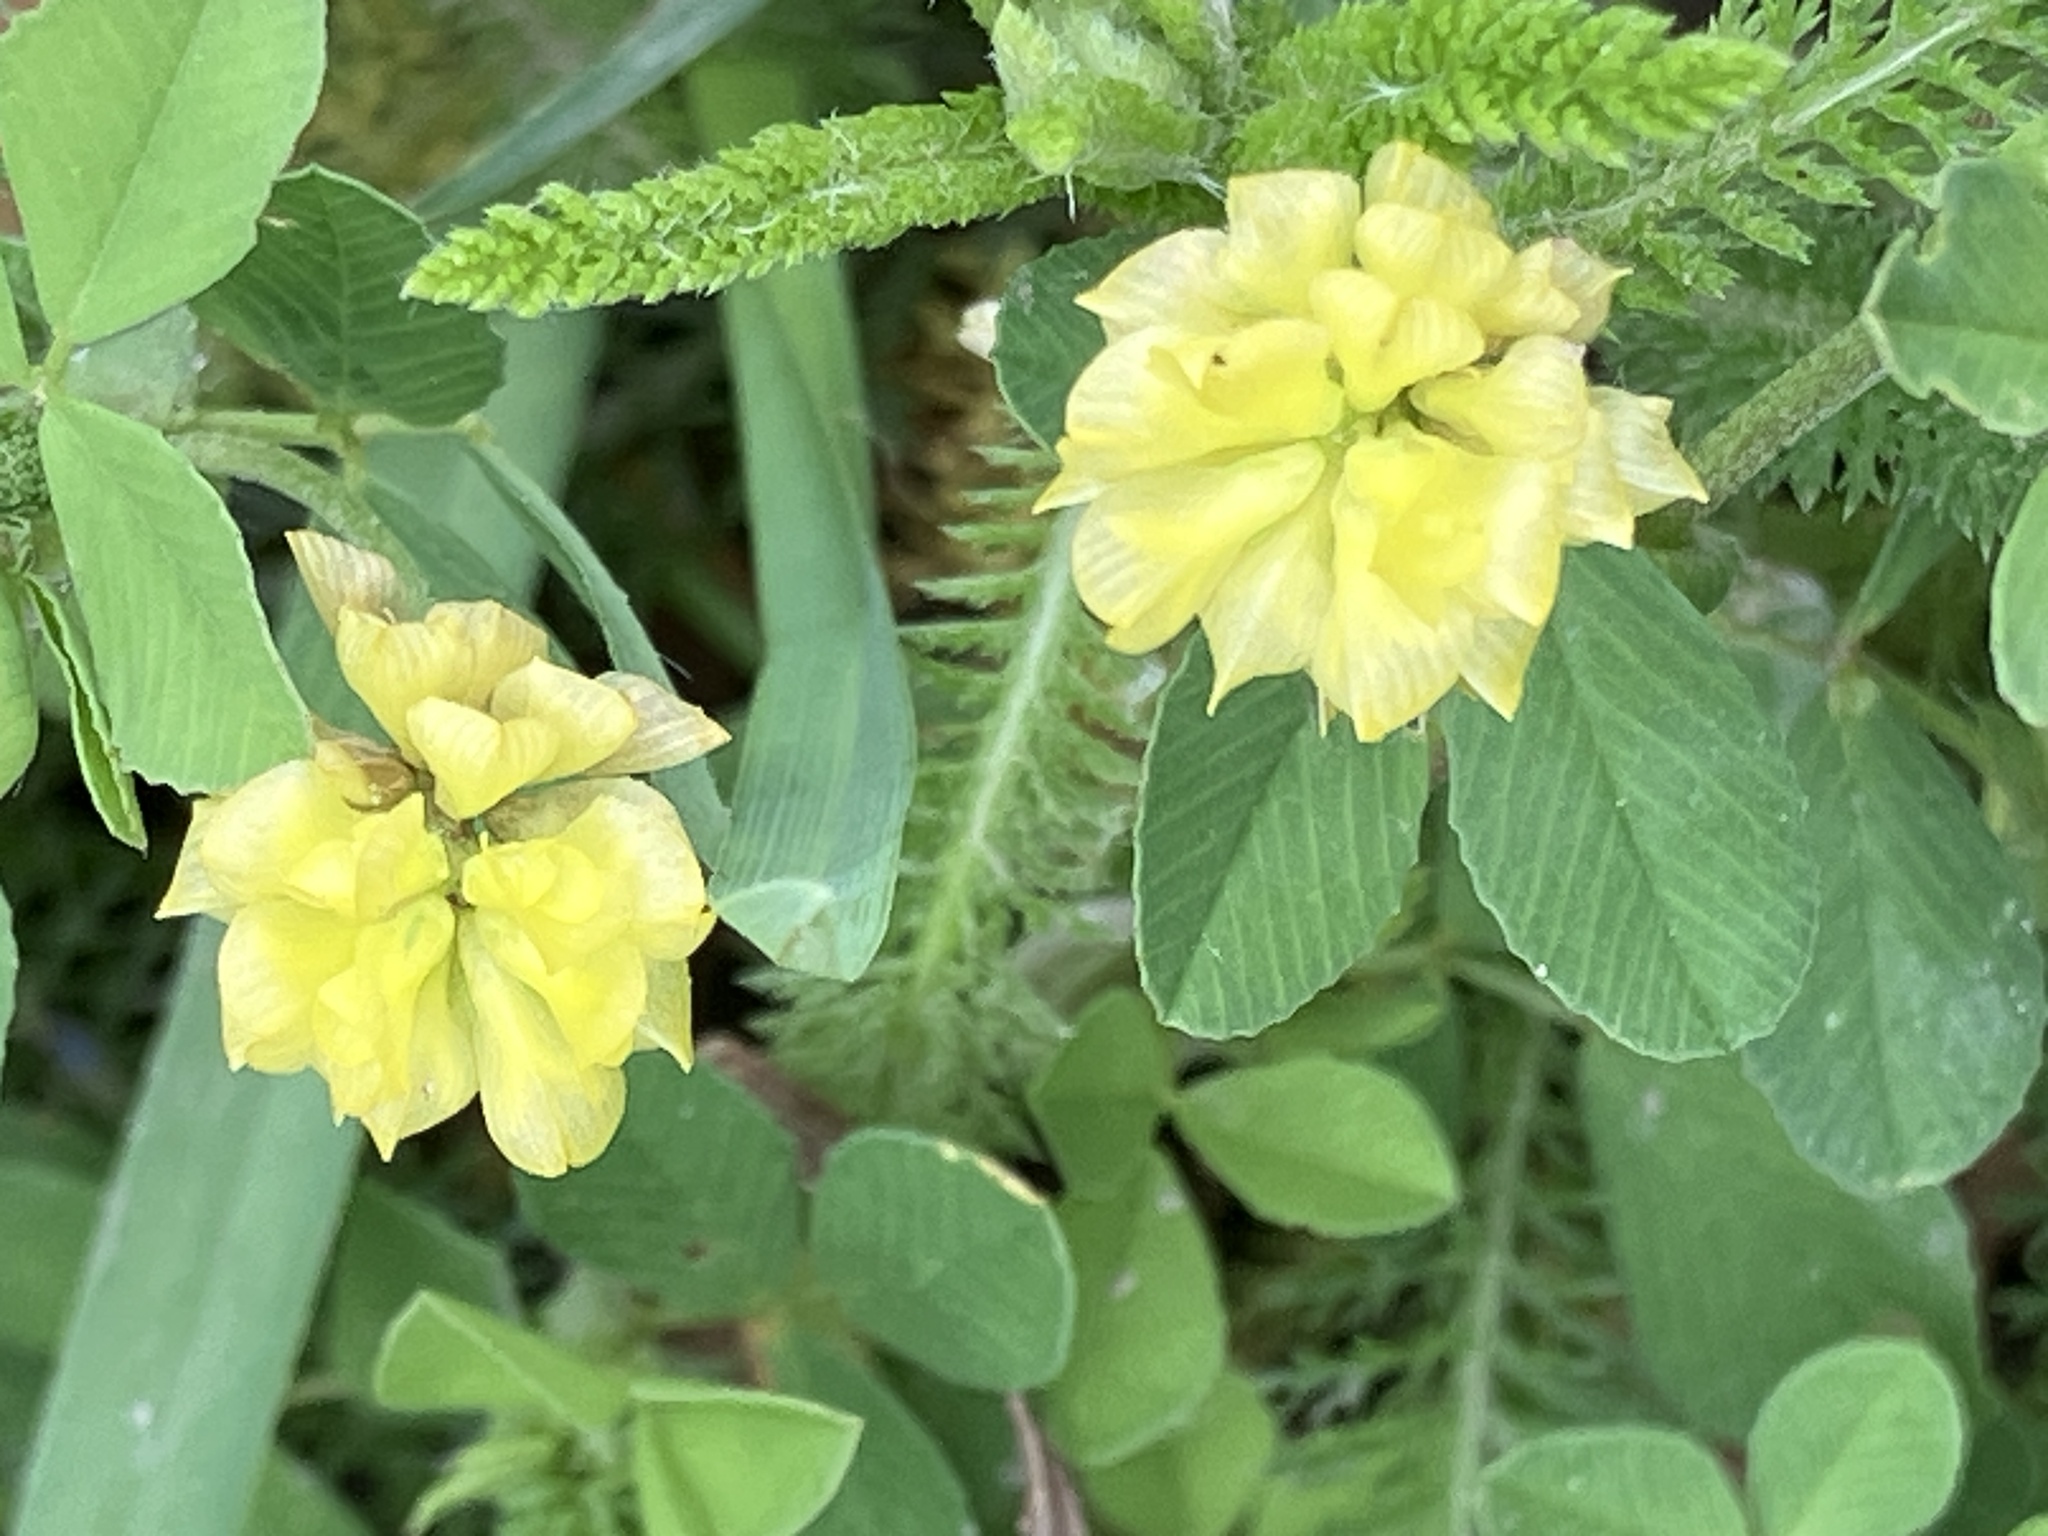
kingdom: Plantae
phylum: Tracheophyta
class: Magnoliopsida
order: Fabales
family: Fabaceae
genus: Trifolium
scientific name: Trifolium campestre
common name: Field clover
